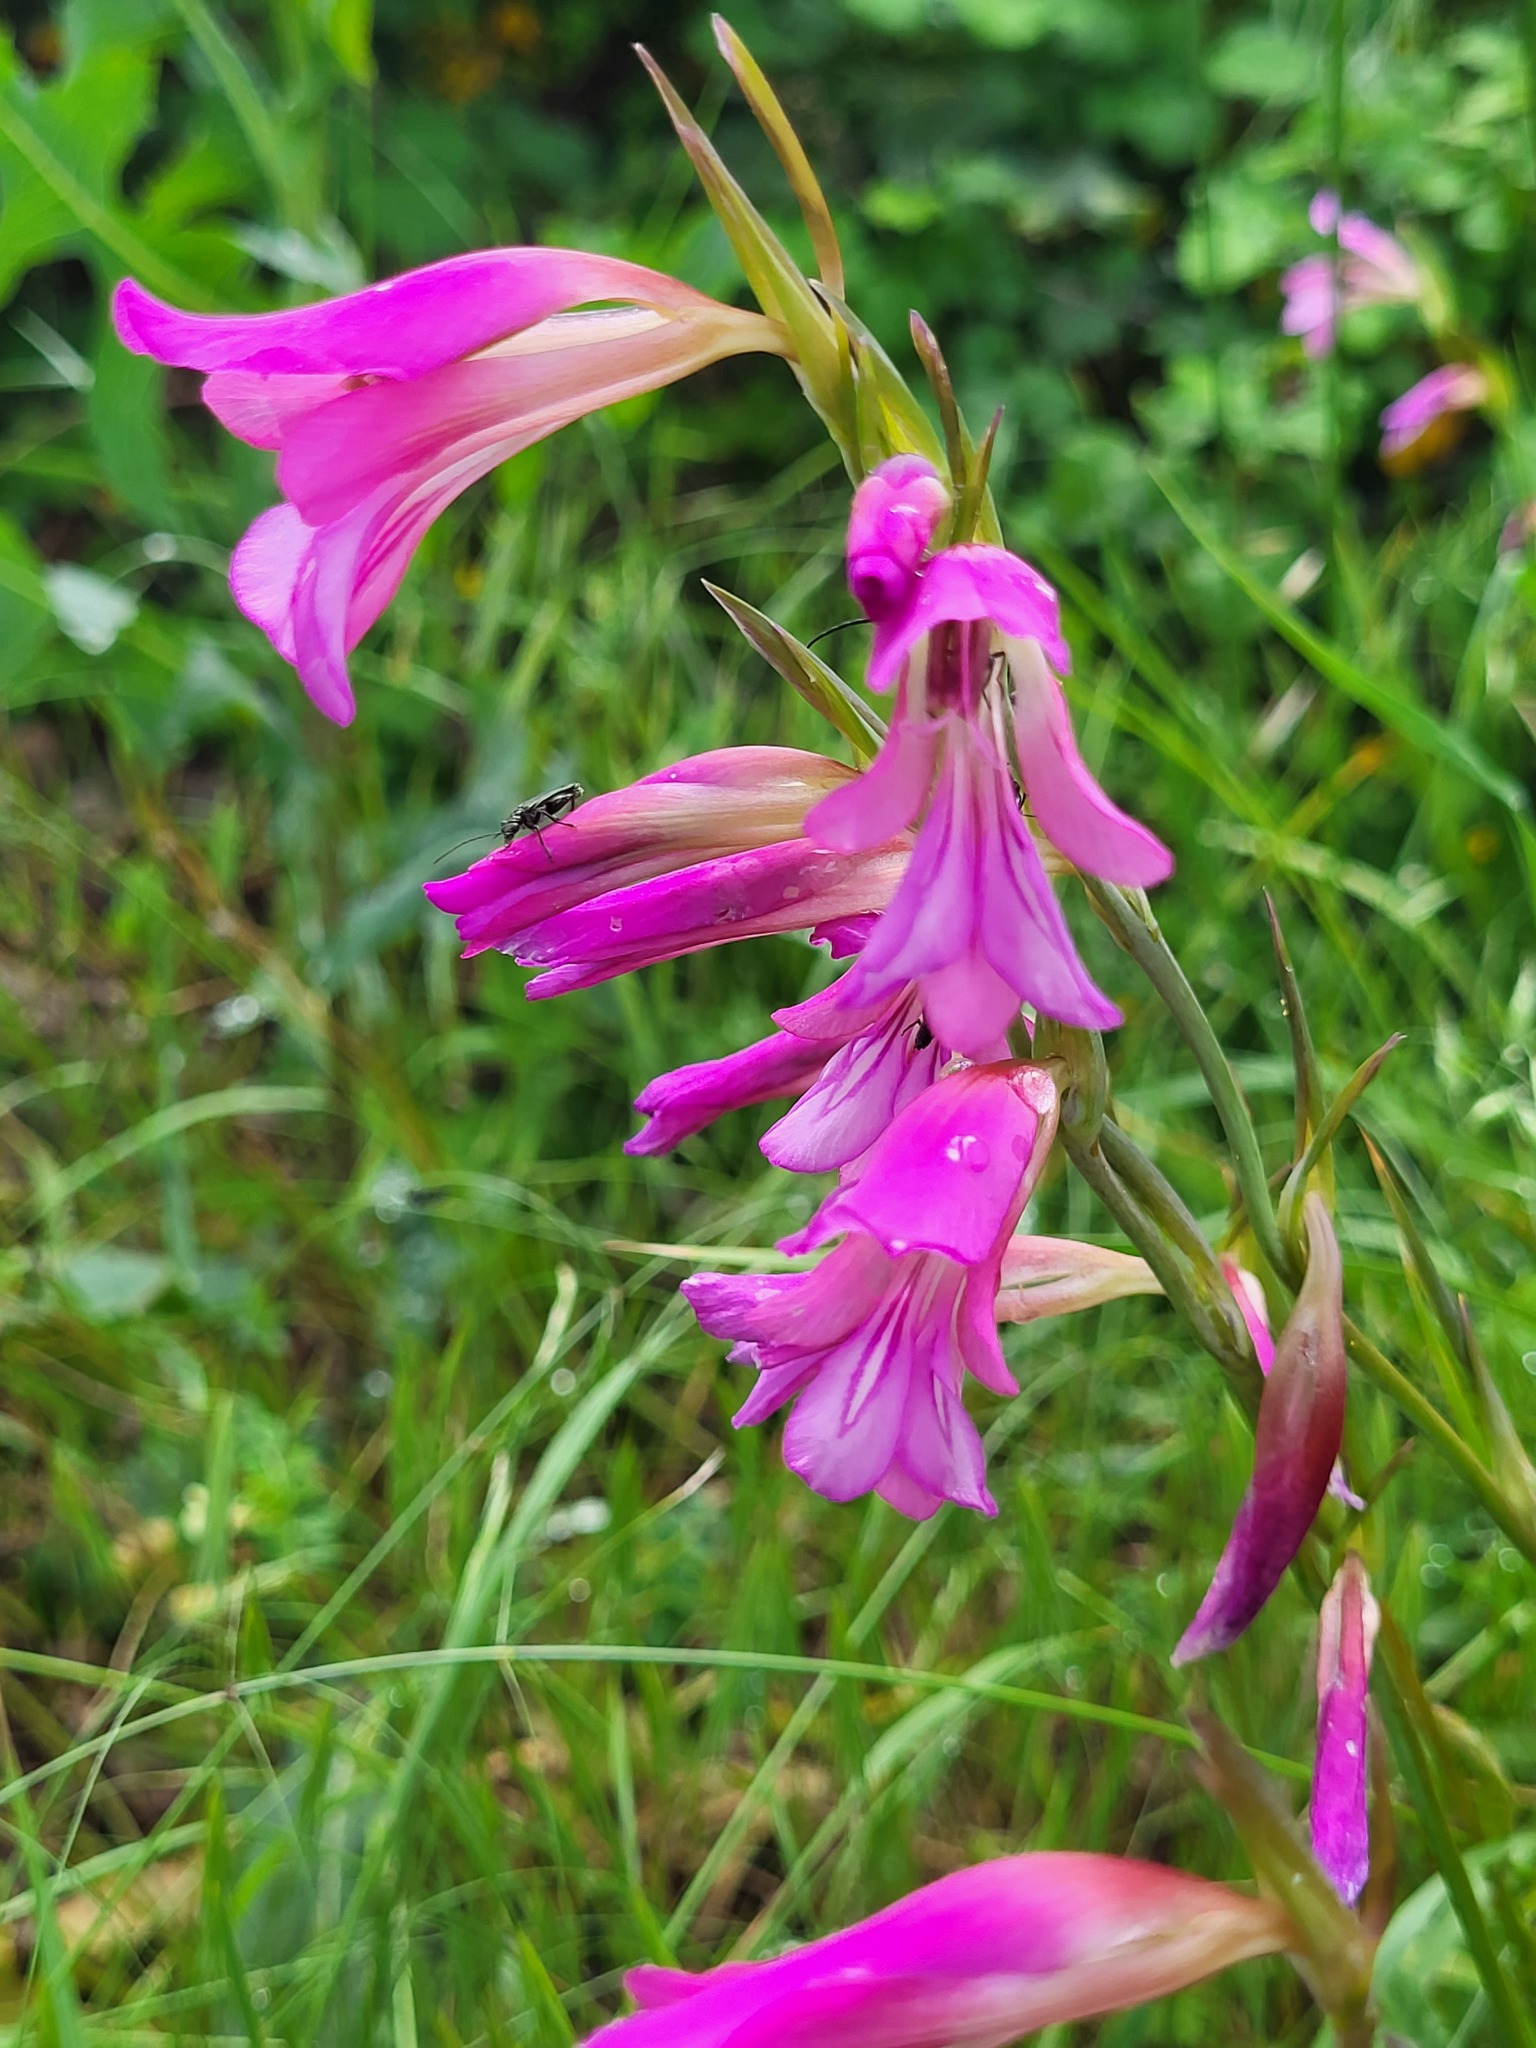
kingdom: Plantae
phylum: Tracheophyta
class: Liliopsida
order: Asparagales
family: Iridaceae
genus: Gladiolus
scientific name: Gladiolus italicus
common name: Field gladiolus
